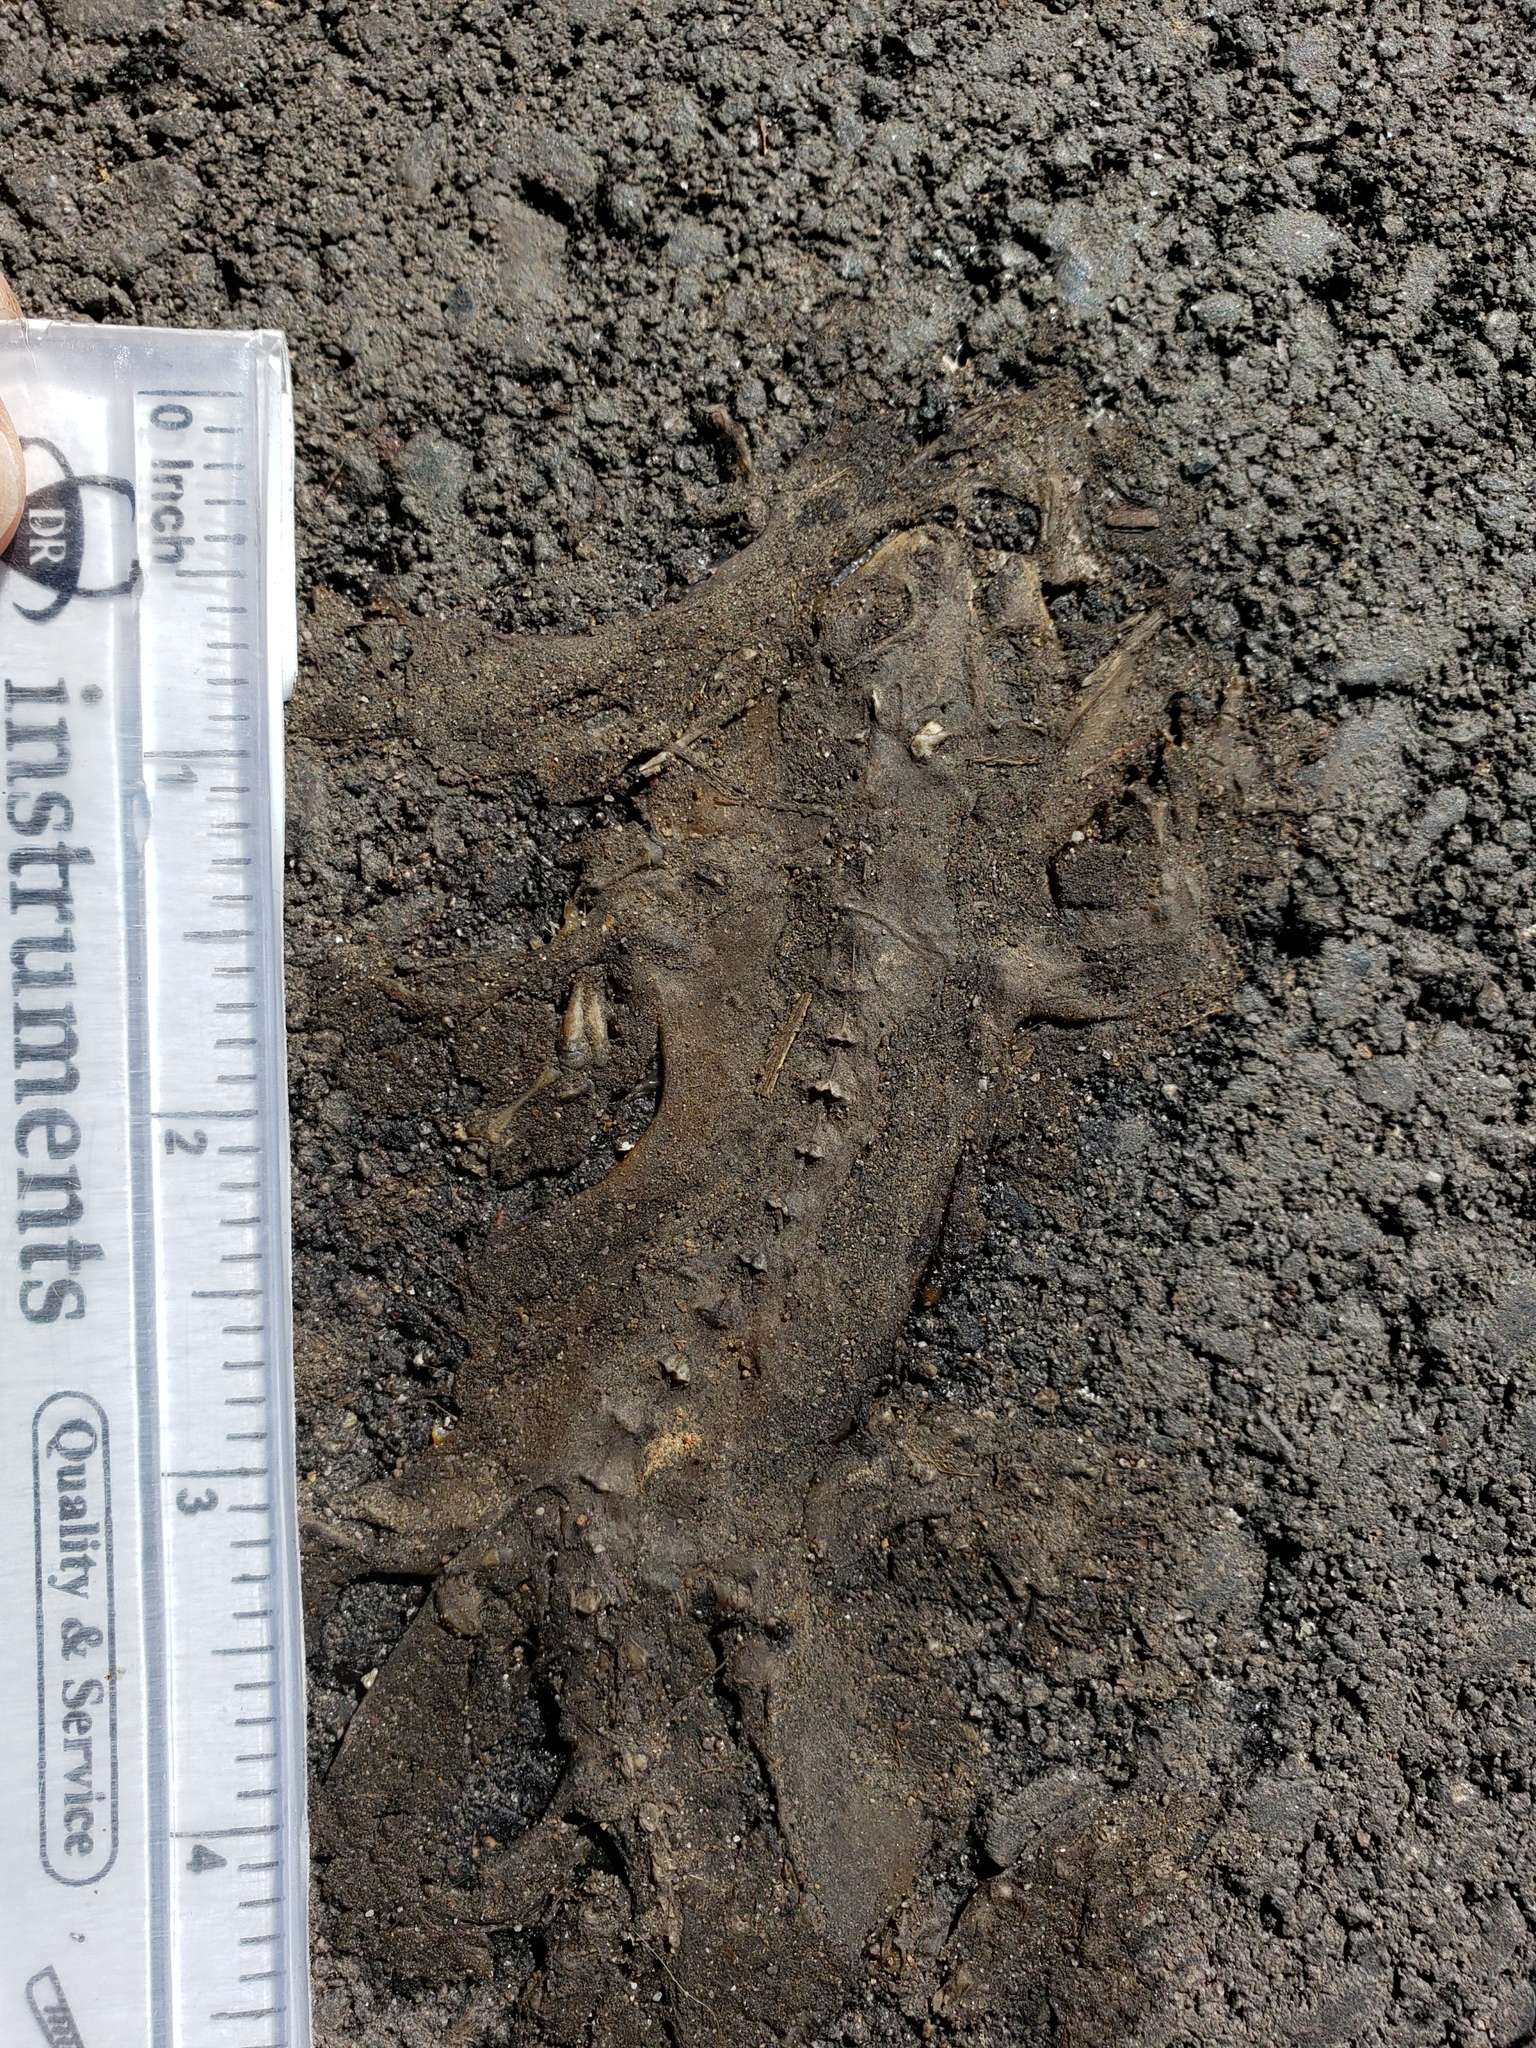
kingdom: Animalia
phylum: Chordata
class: Amphibia
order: Caudata
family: Salamandridae
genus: Taricha
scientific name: Taricha
